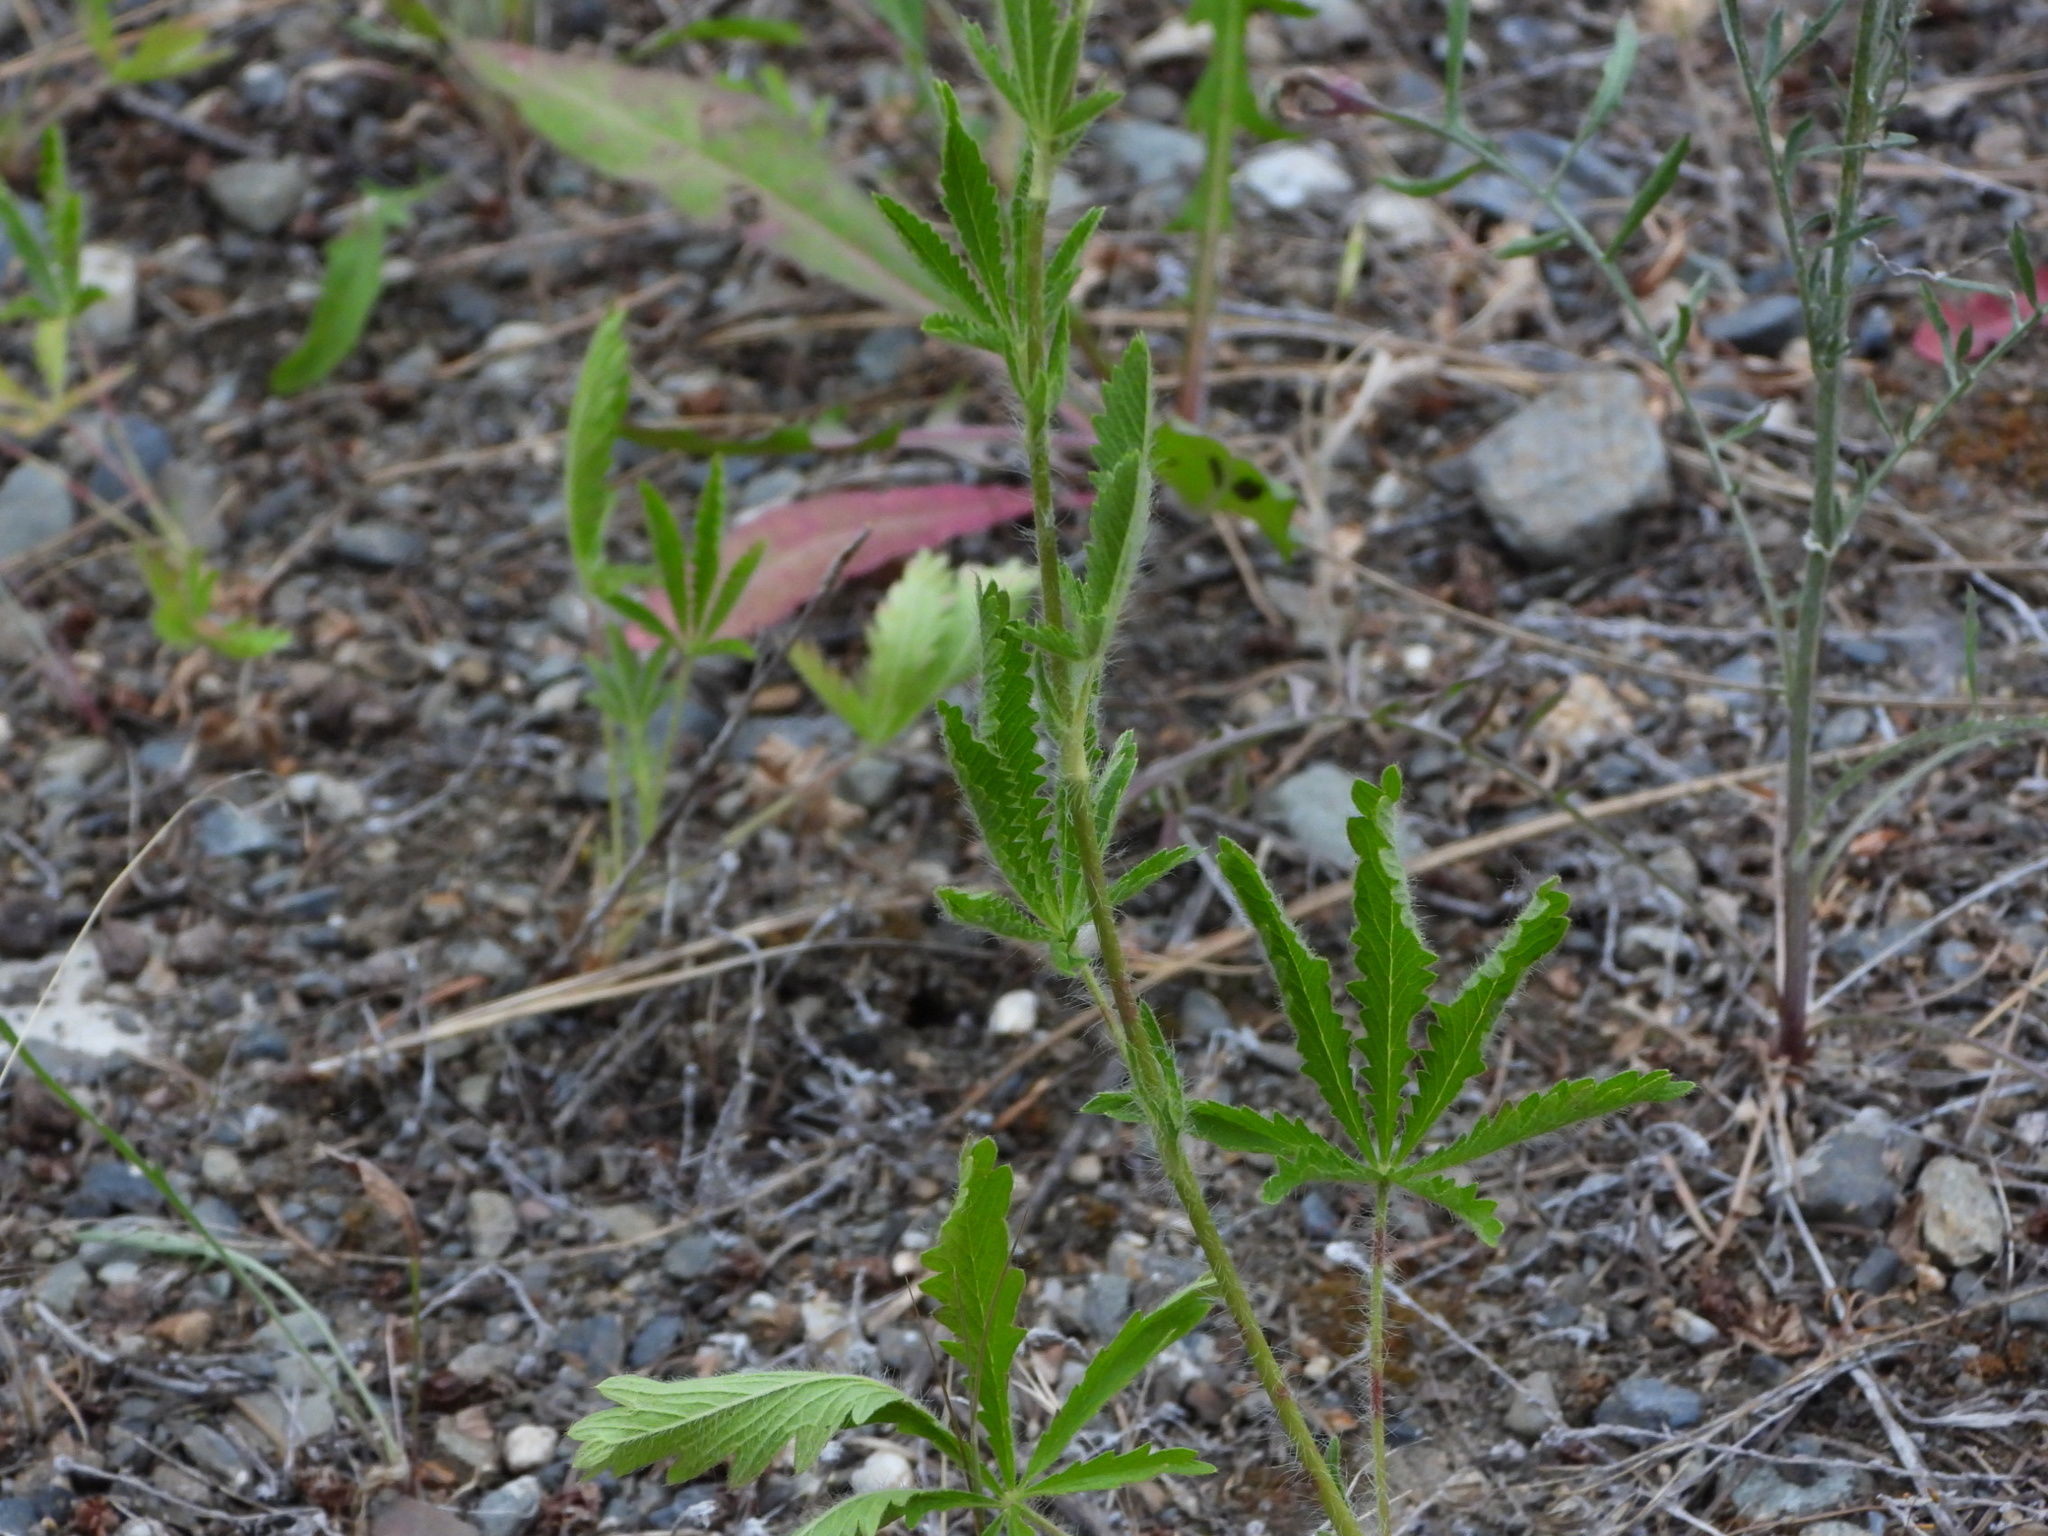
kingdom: Plantae
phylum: Tracheophyta
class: Magnoliopsida
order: Rosales
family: Rosaceae
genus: Potentilla
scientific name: Potentilla recta
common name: Sulphur cinquefoil
